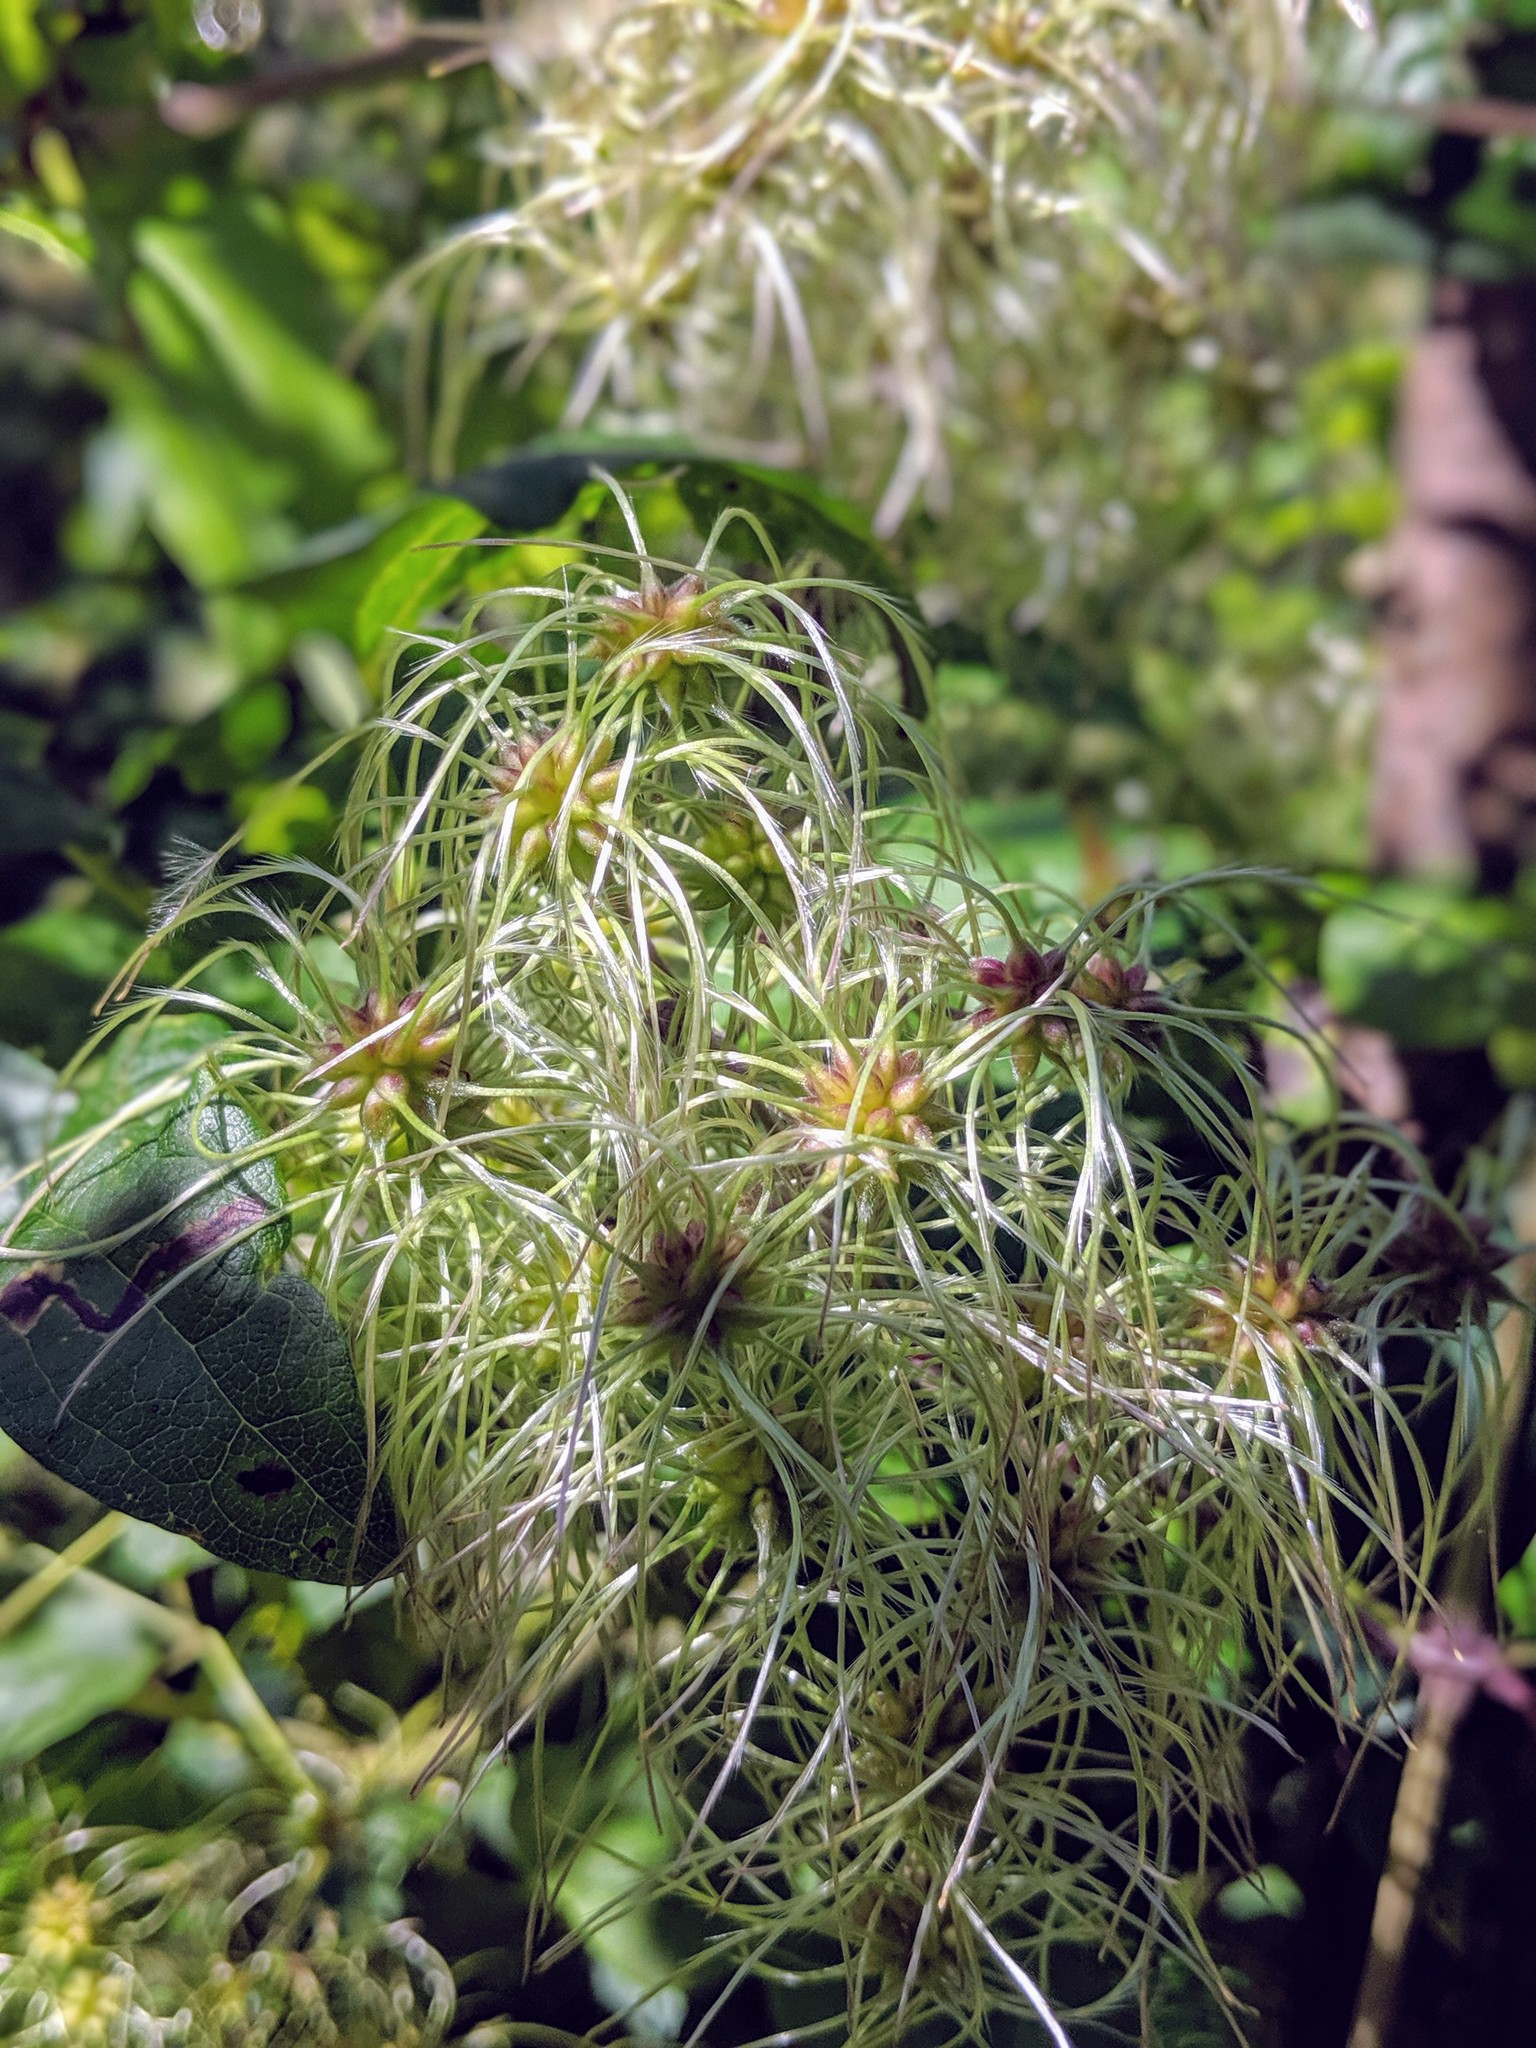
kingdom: Plantae
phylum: Tracheophyta
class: Magnoliopsida
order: Ranunculales
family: Ranunculaceae
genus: Clematis
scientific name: Clematis vitalba
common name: Evergreen clematis
